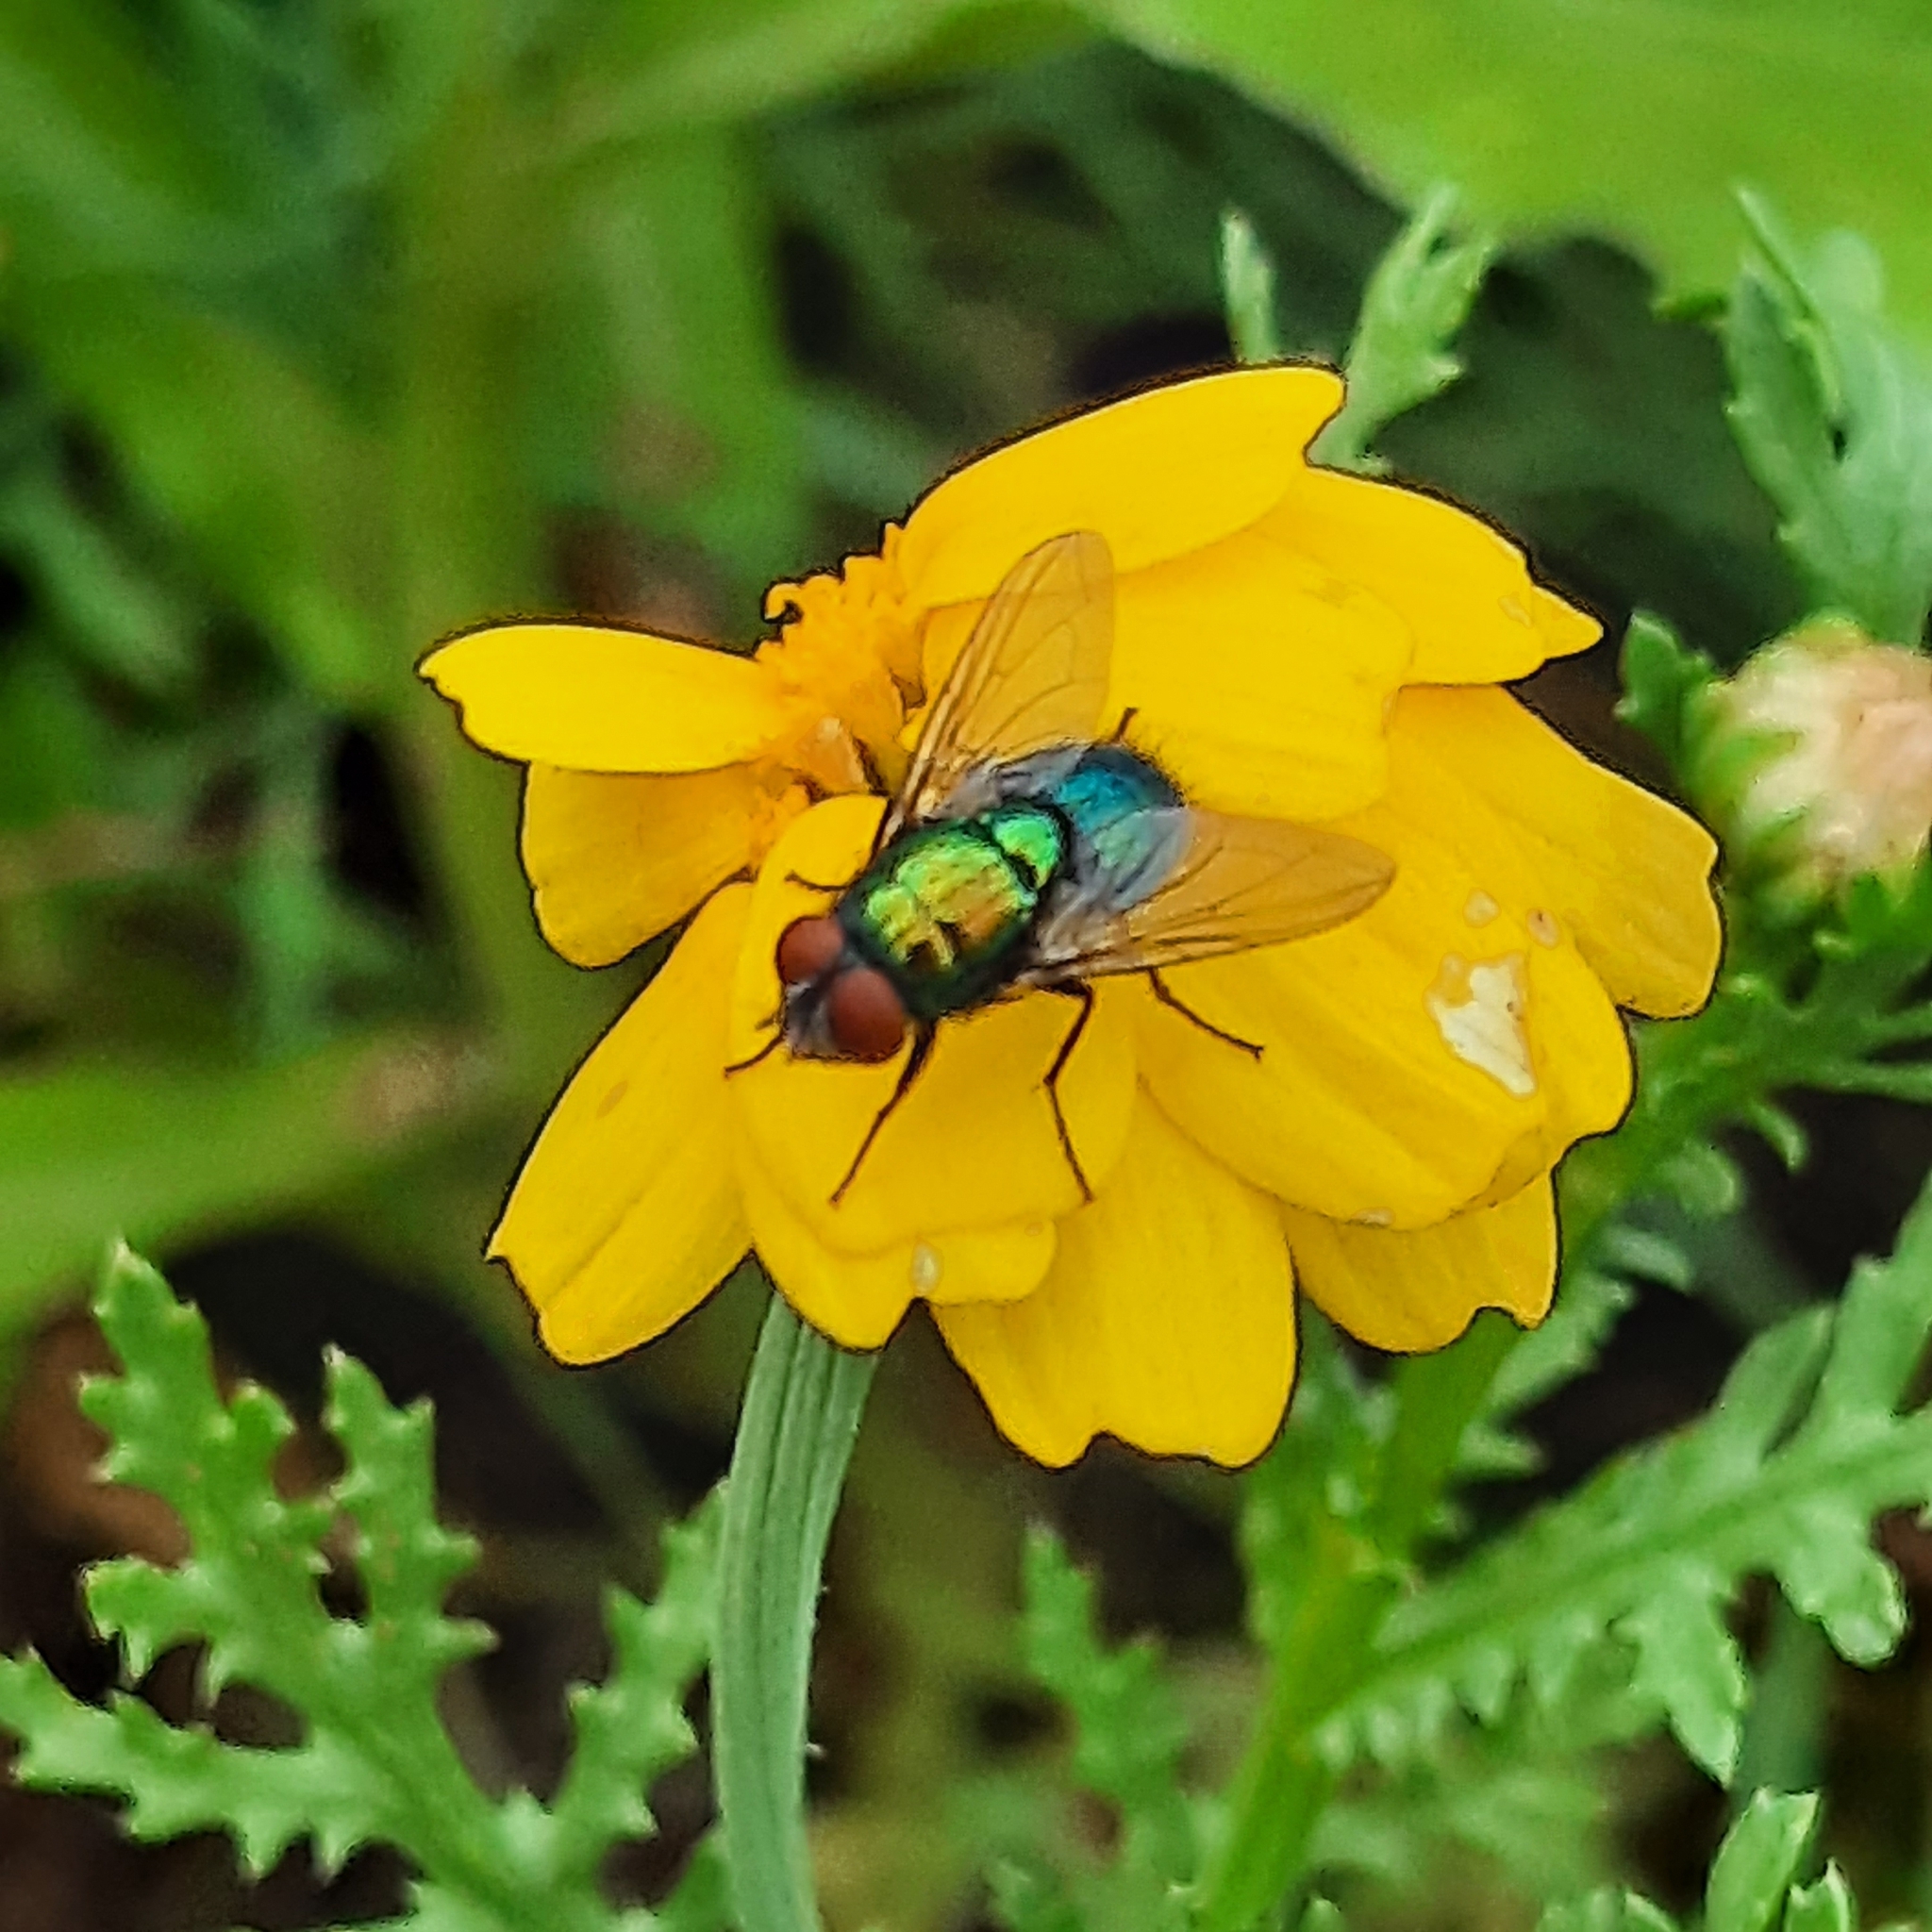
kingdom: Animalia
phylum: Arthropoda
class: Insecta
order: Diptera
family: Calliphoridae
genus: Lucilia
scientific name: Lucilia
